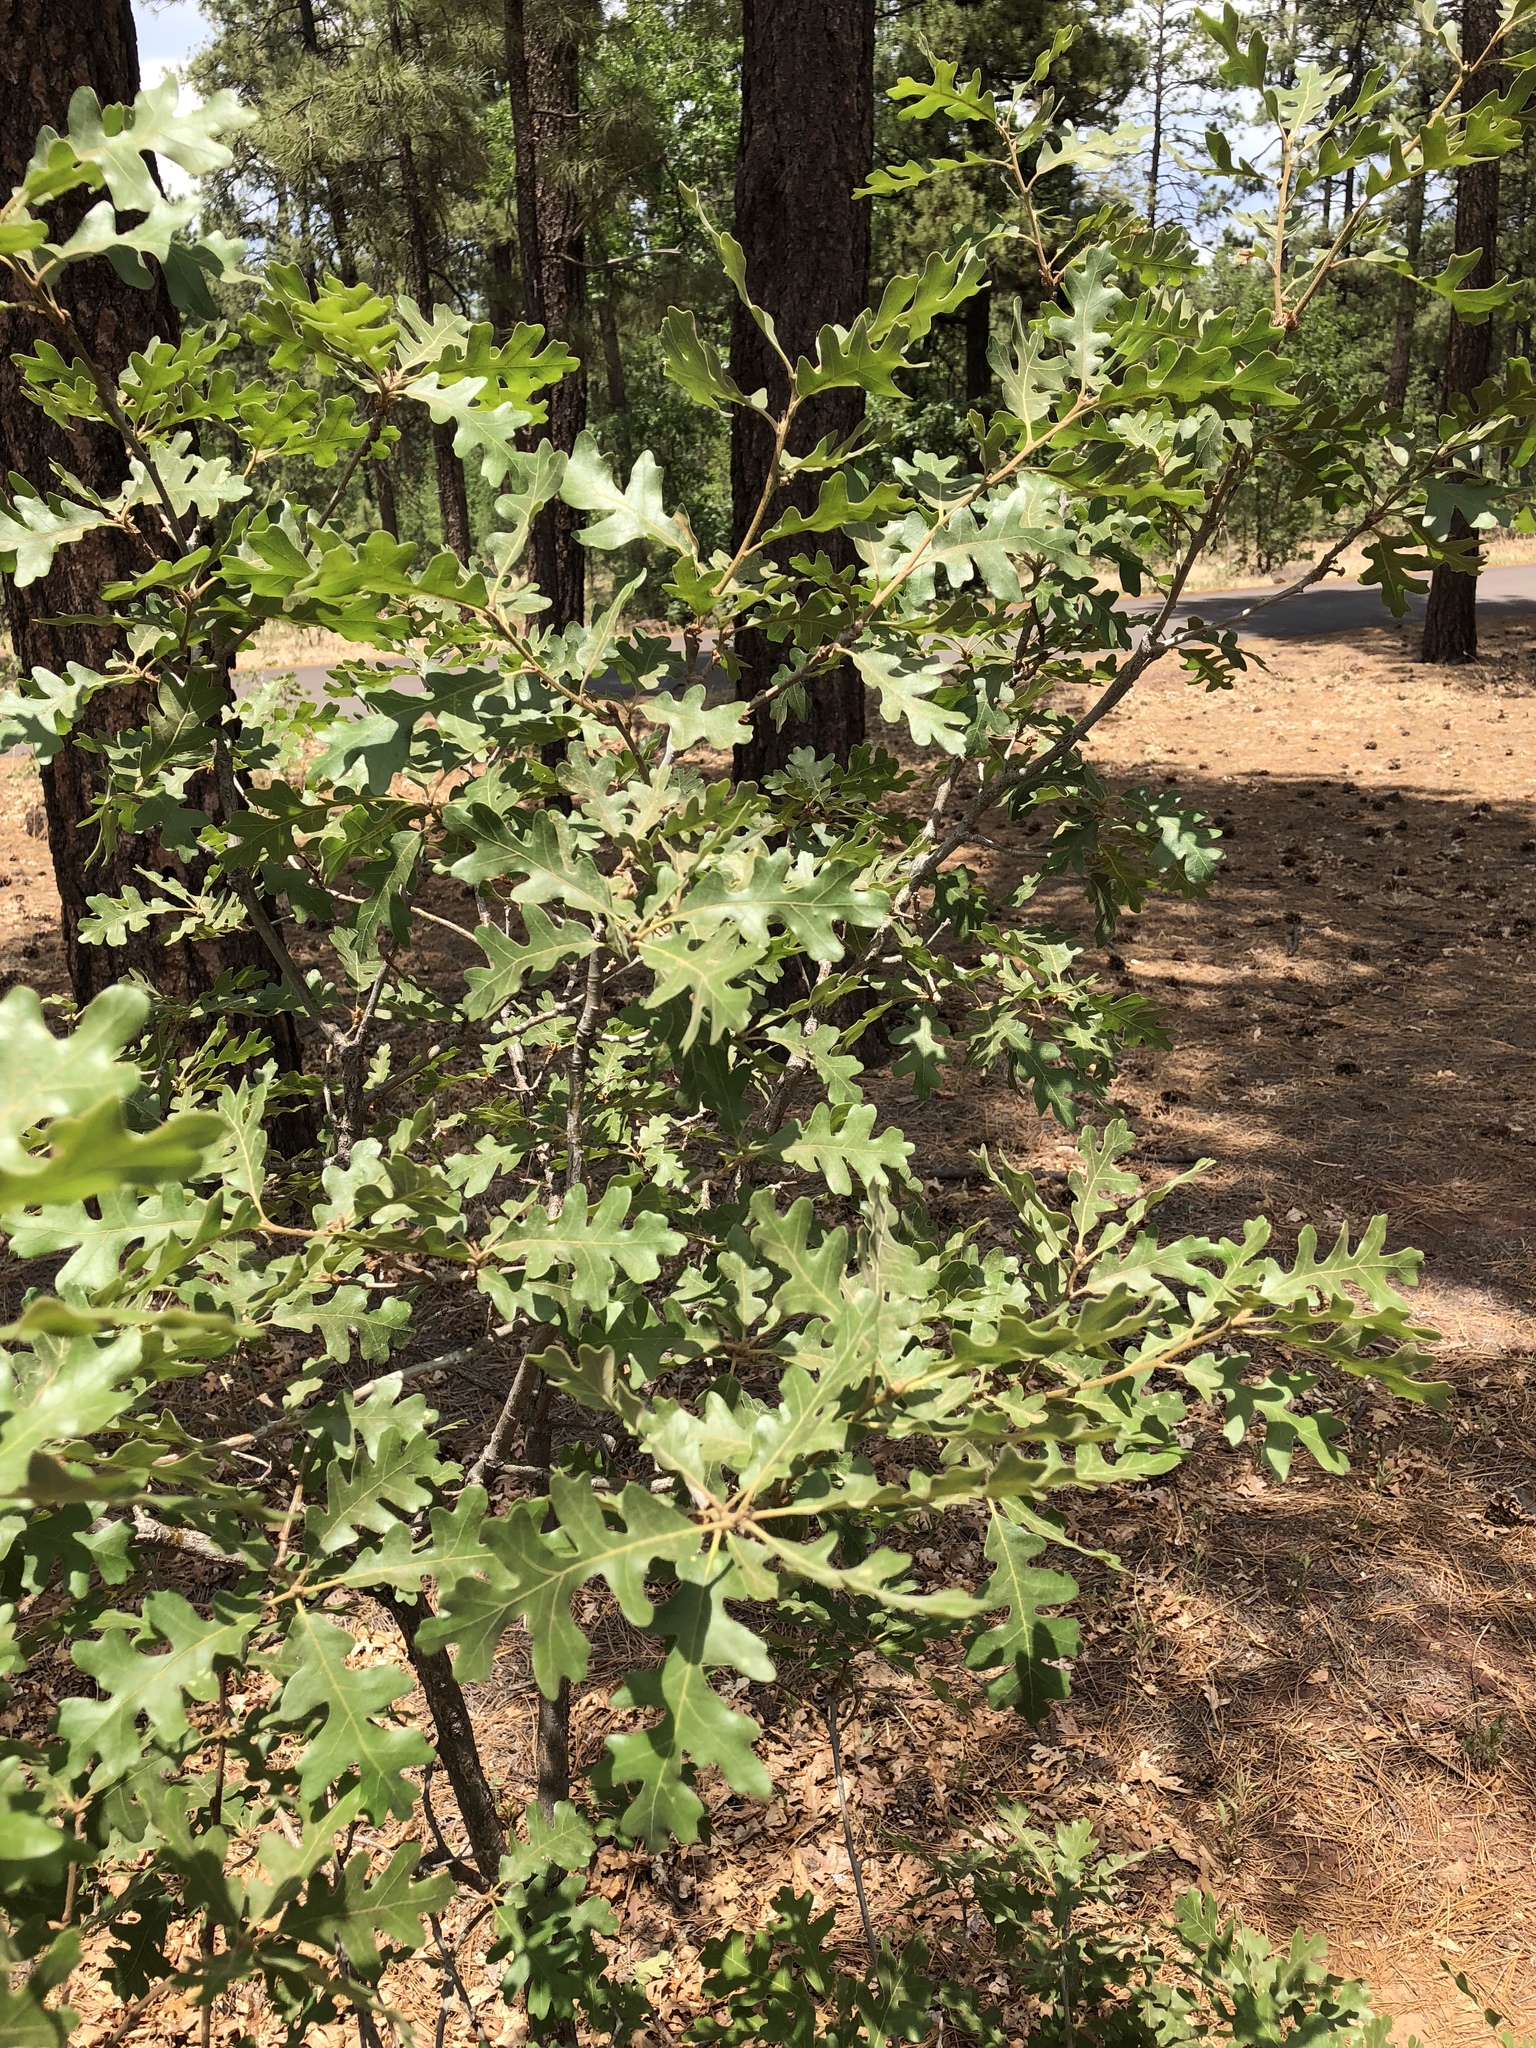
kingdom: Plantae
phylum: Tracheophyta
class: Magnoliopsida
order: Fagales
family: Fagaceae
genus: Quercus
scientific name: Quercus gambelii
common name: Gambel oak
